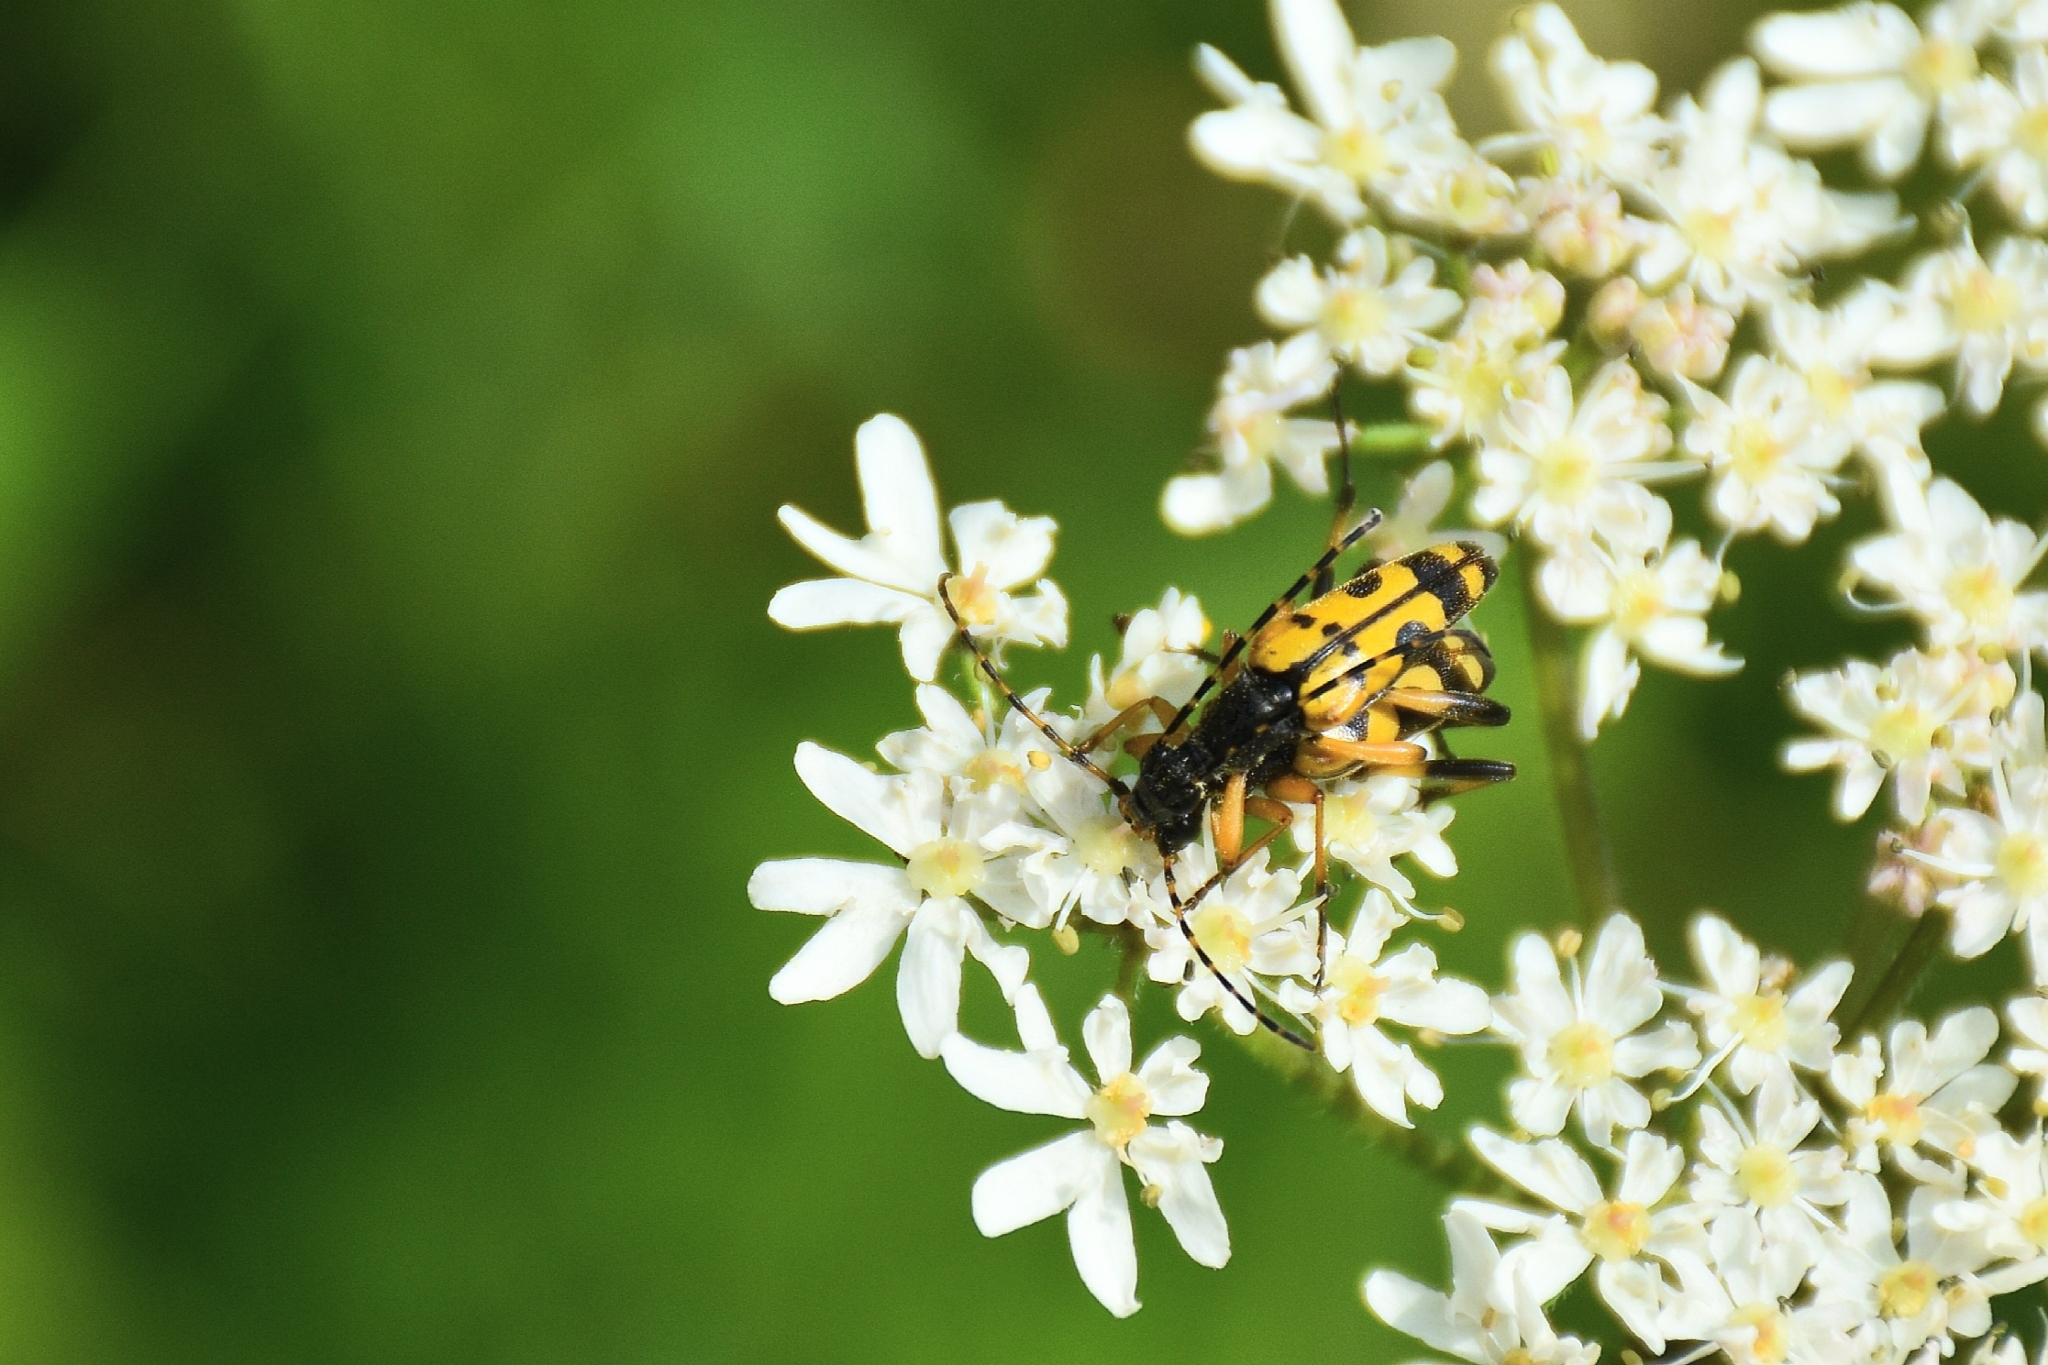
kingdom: Animalia
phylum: Arthropoda
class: Insecta
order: Coleoptera
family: Cerambycidae
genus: Rutpela
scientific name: Rutpela maculata
